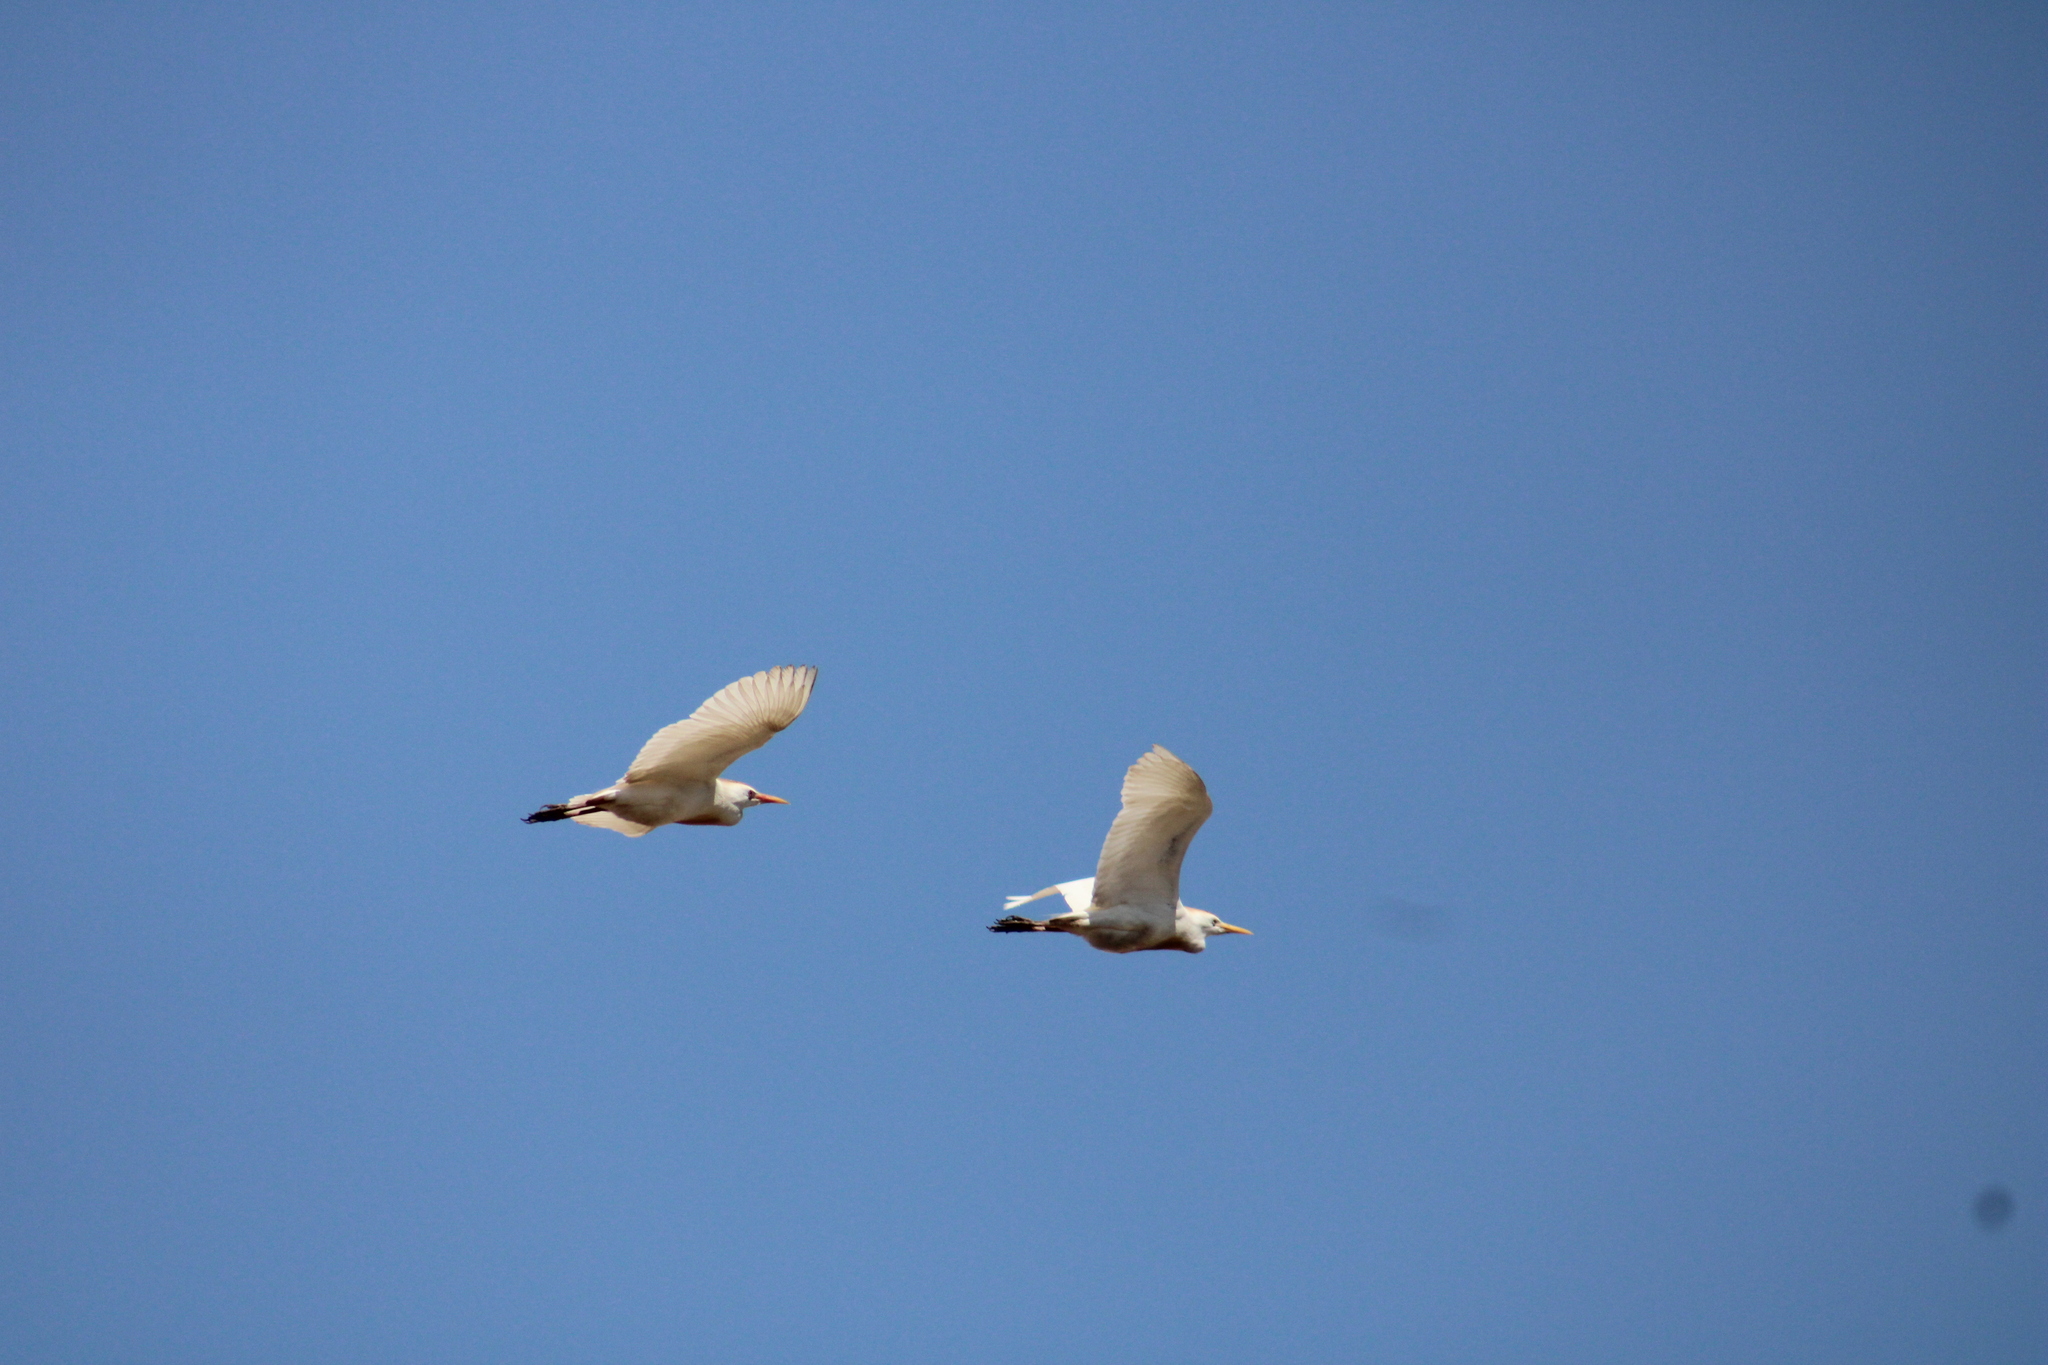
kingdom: Animalia
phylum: Chordata
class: Aves
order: Pelecaniformes
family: Ardeidae
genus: Bubulcus
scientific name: Bubulcus ibis
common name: Cattle egret
